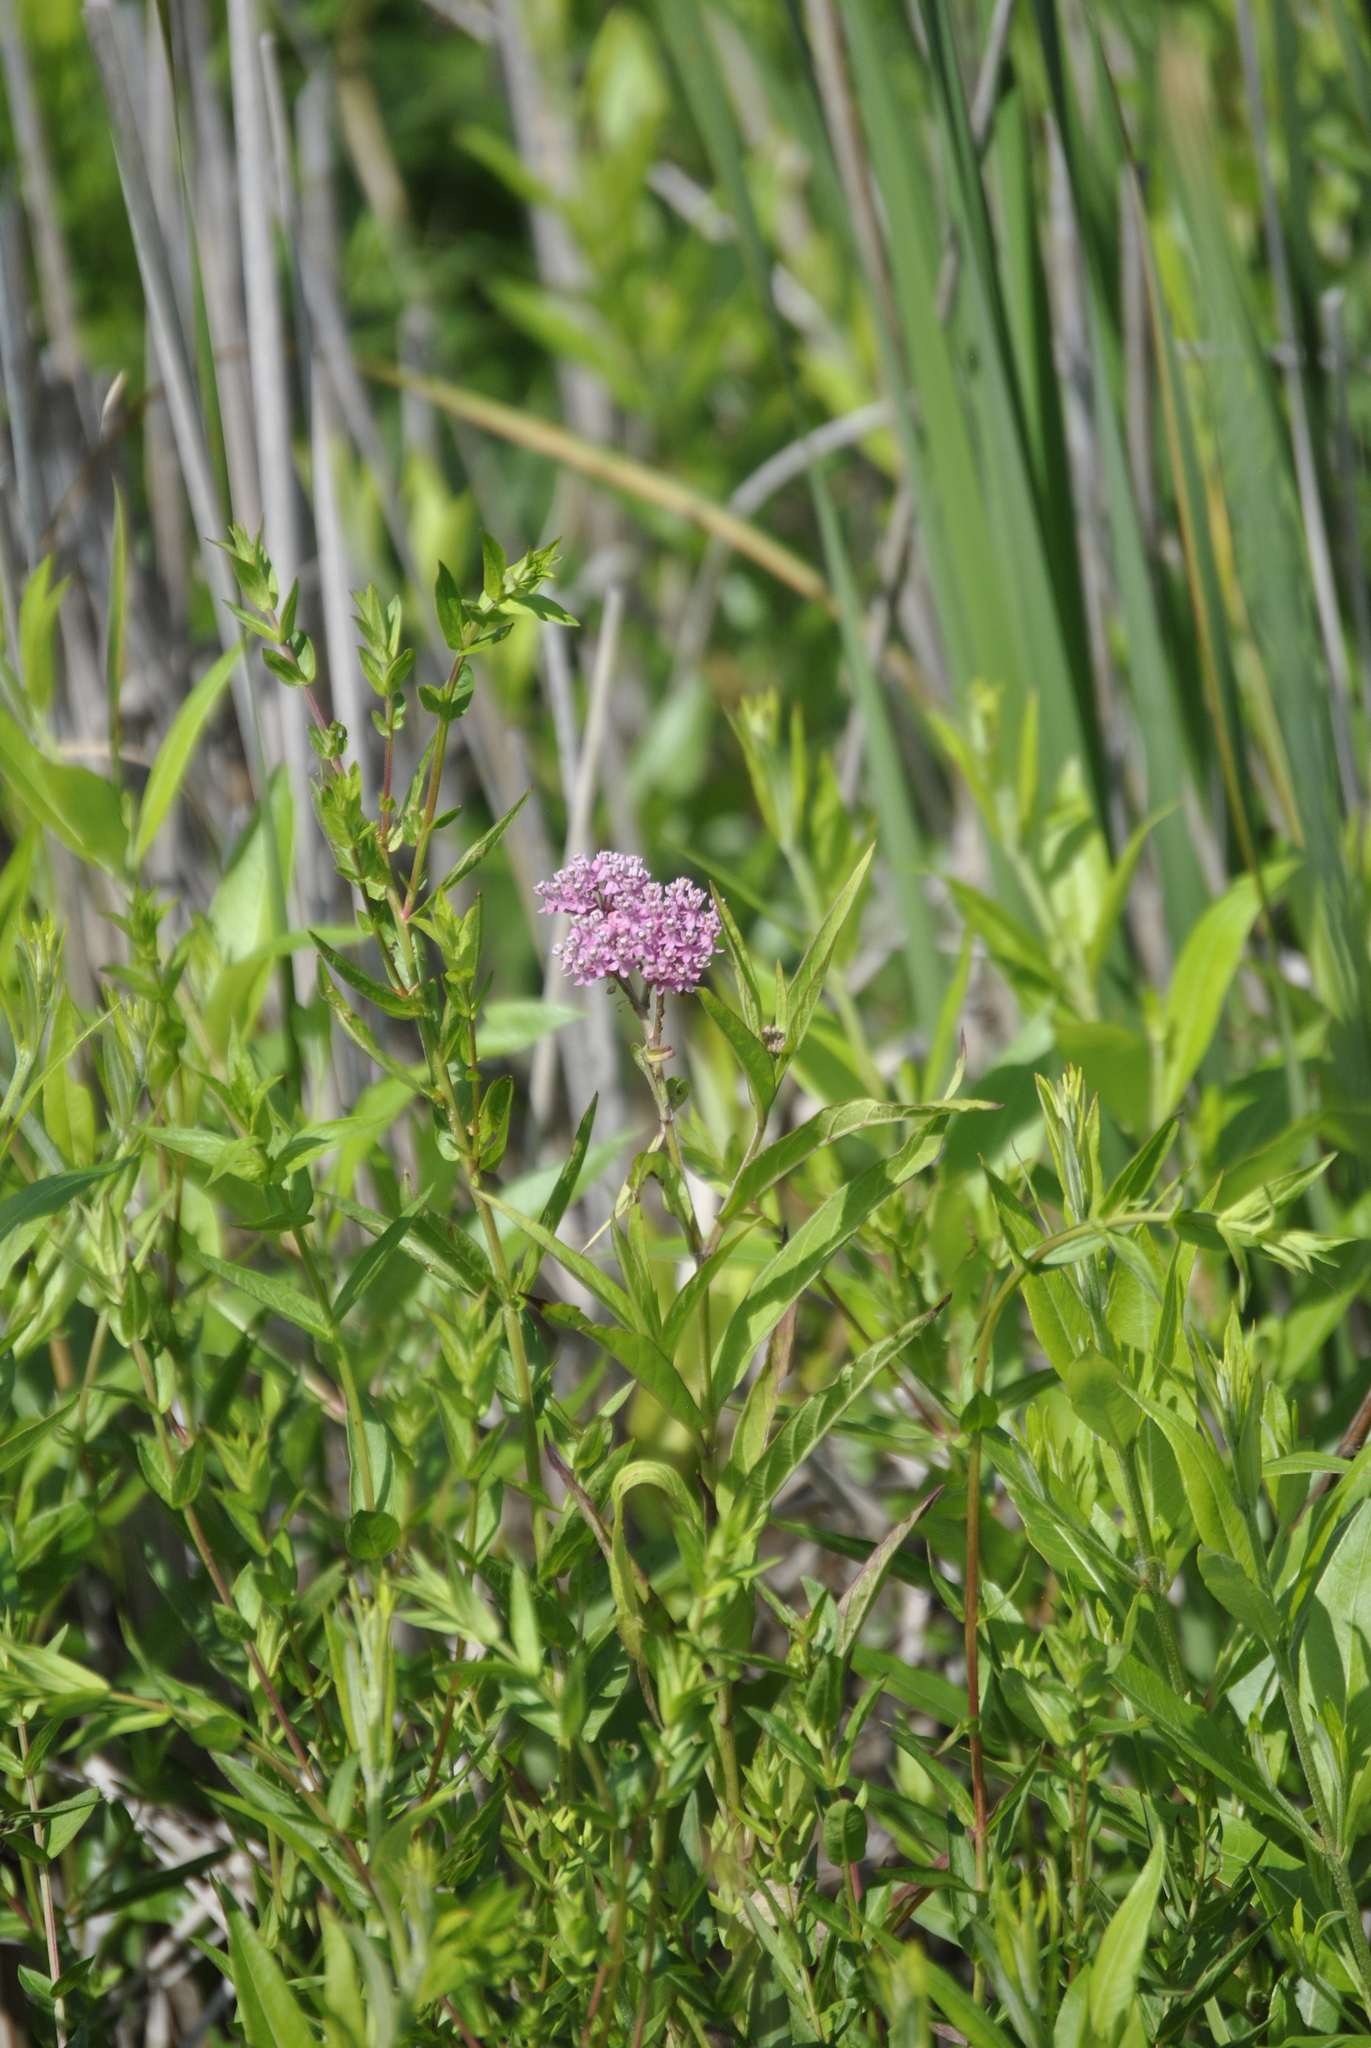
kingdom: Plantae
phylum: Tracheophyta
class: Magnoliopsida
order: Gentianales
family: Apocynaceae
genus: Asclepias
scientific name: Asclepias incarnata
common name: Swamp milkweed
